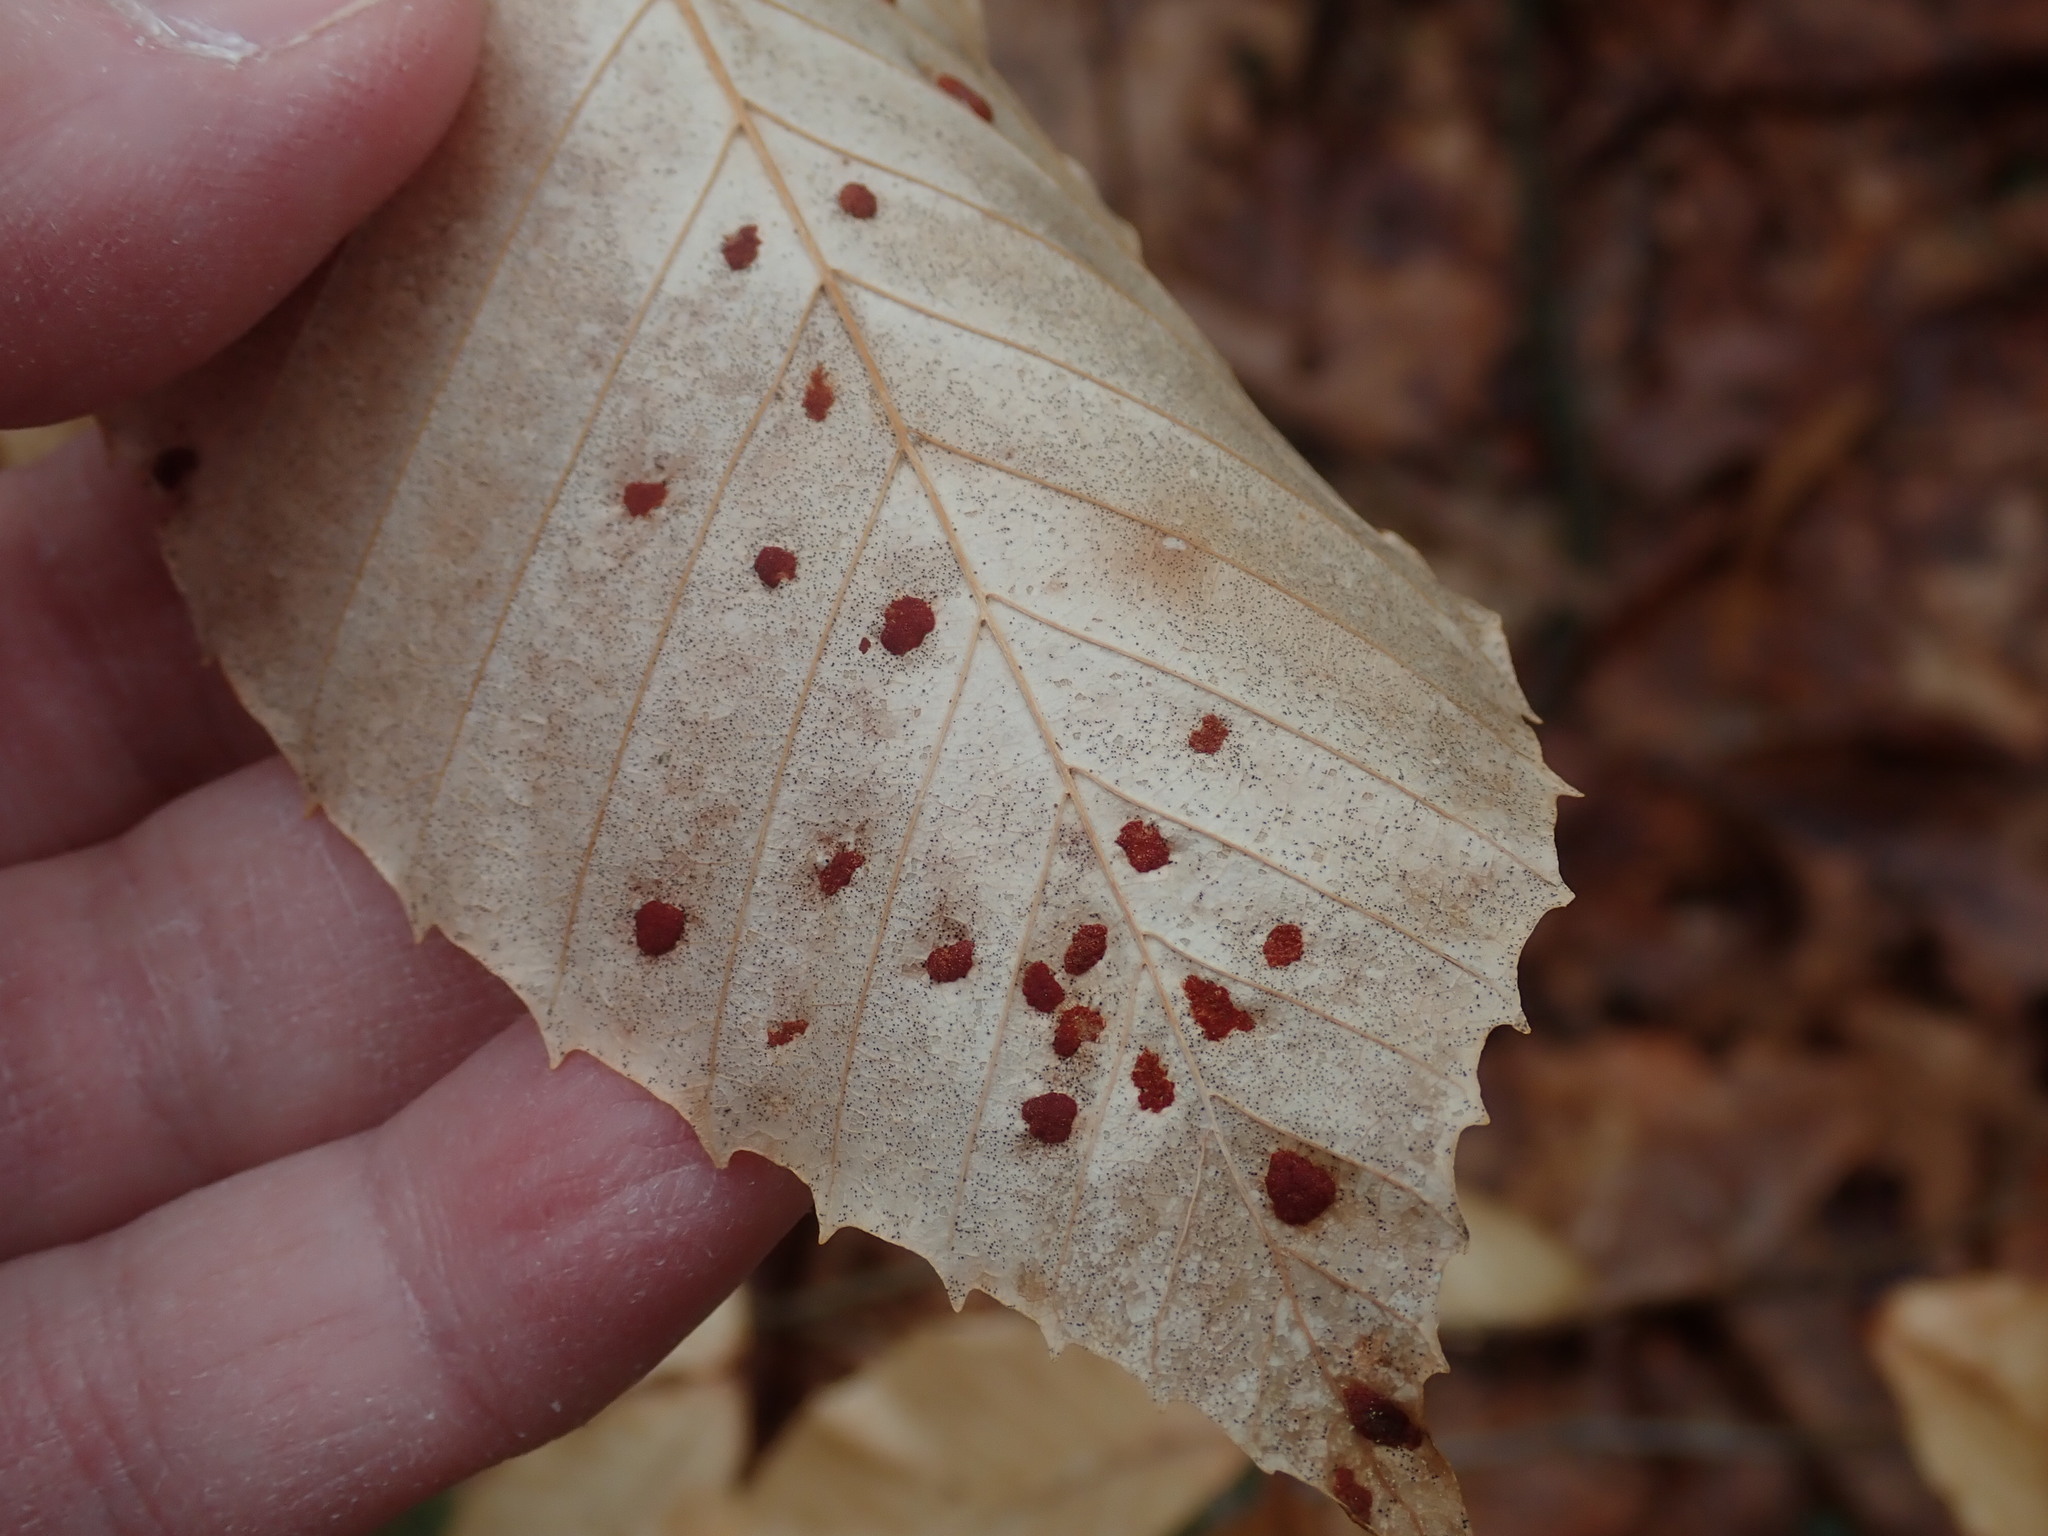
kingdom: Animalia
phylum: Arthropoda
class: Arachnida
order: Trombidiformes
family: Eriophyidae
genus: Acalitus
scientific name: Acalitus
